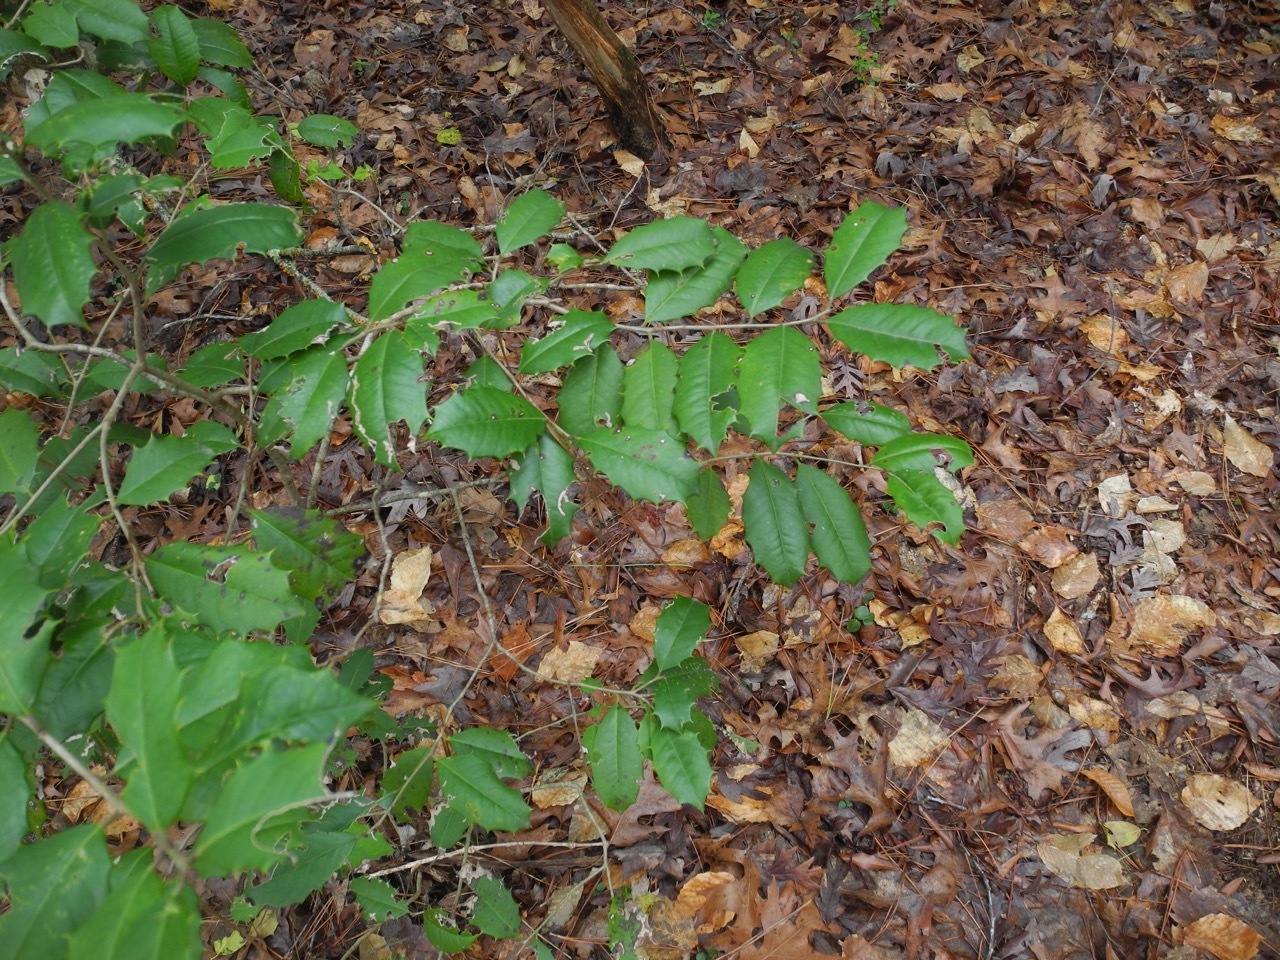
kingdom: Plantae
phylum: Tracheophyta
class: Magnoliopsida
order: Aquifoliales
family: Aquifoliaceae
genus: Ilex
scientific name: Ilex opaca
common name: American holly
